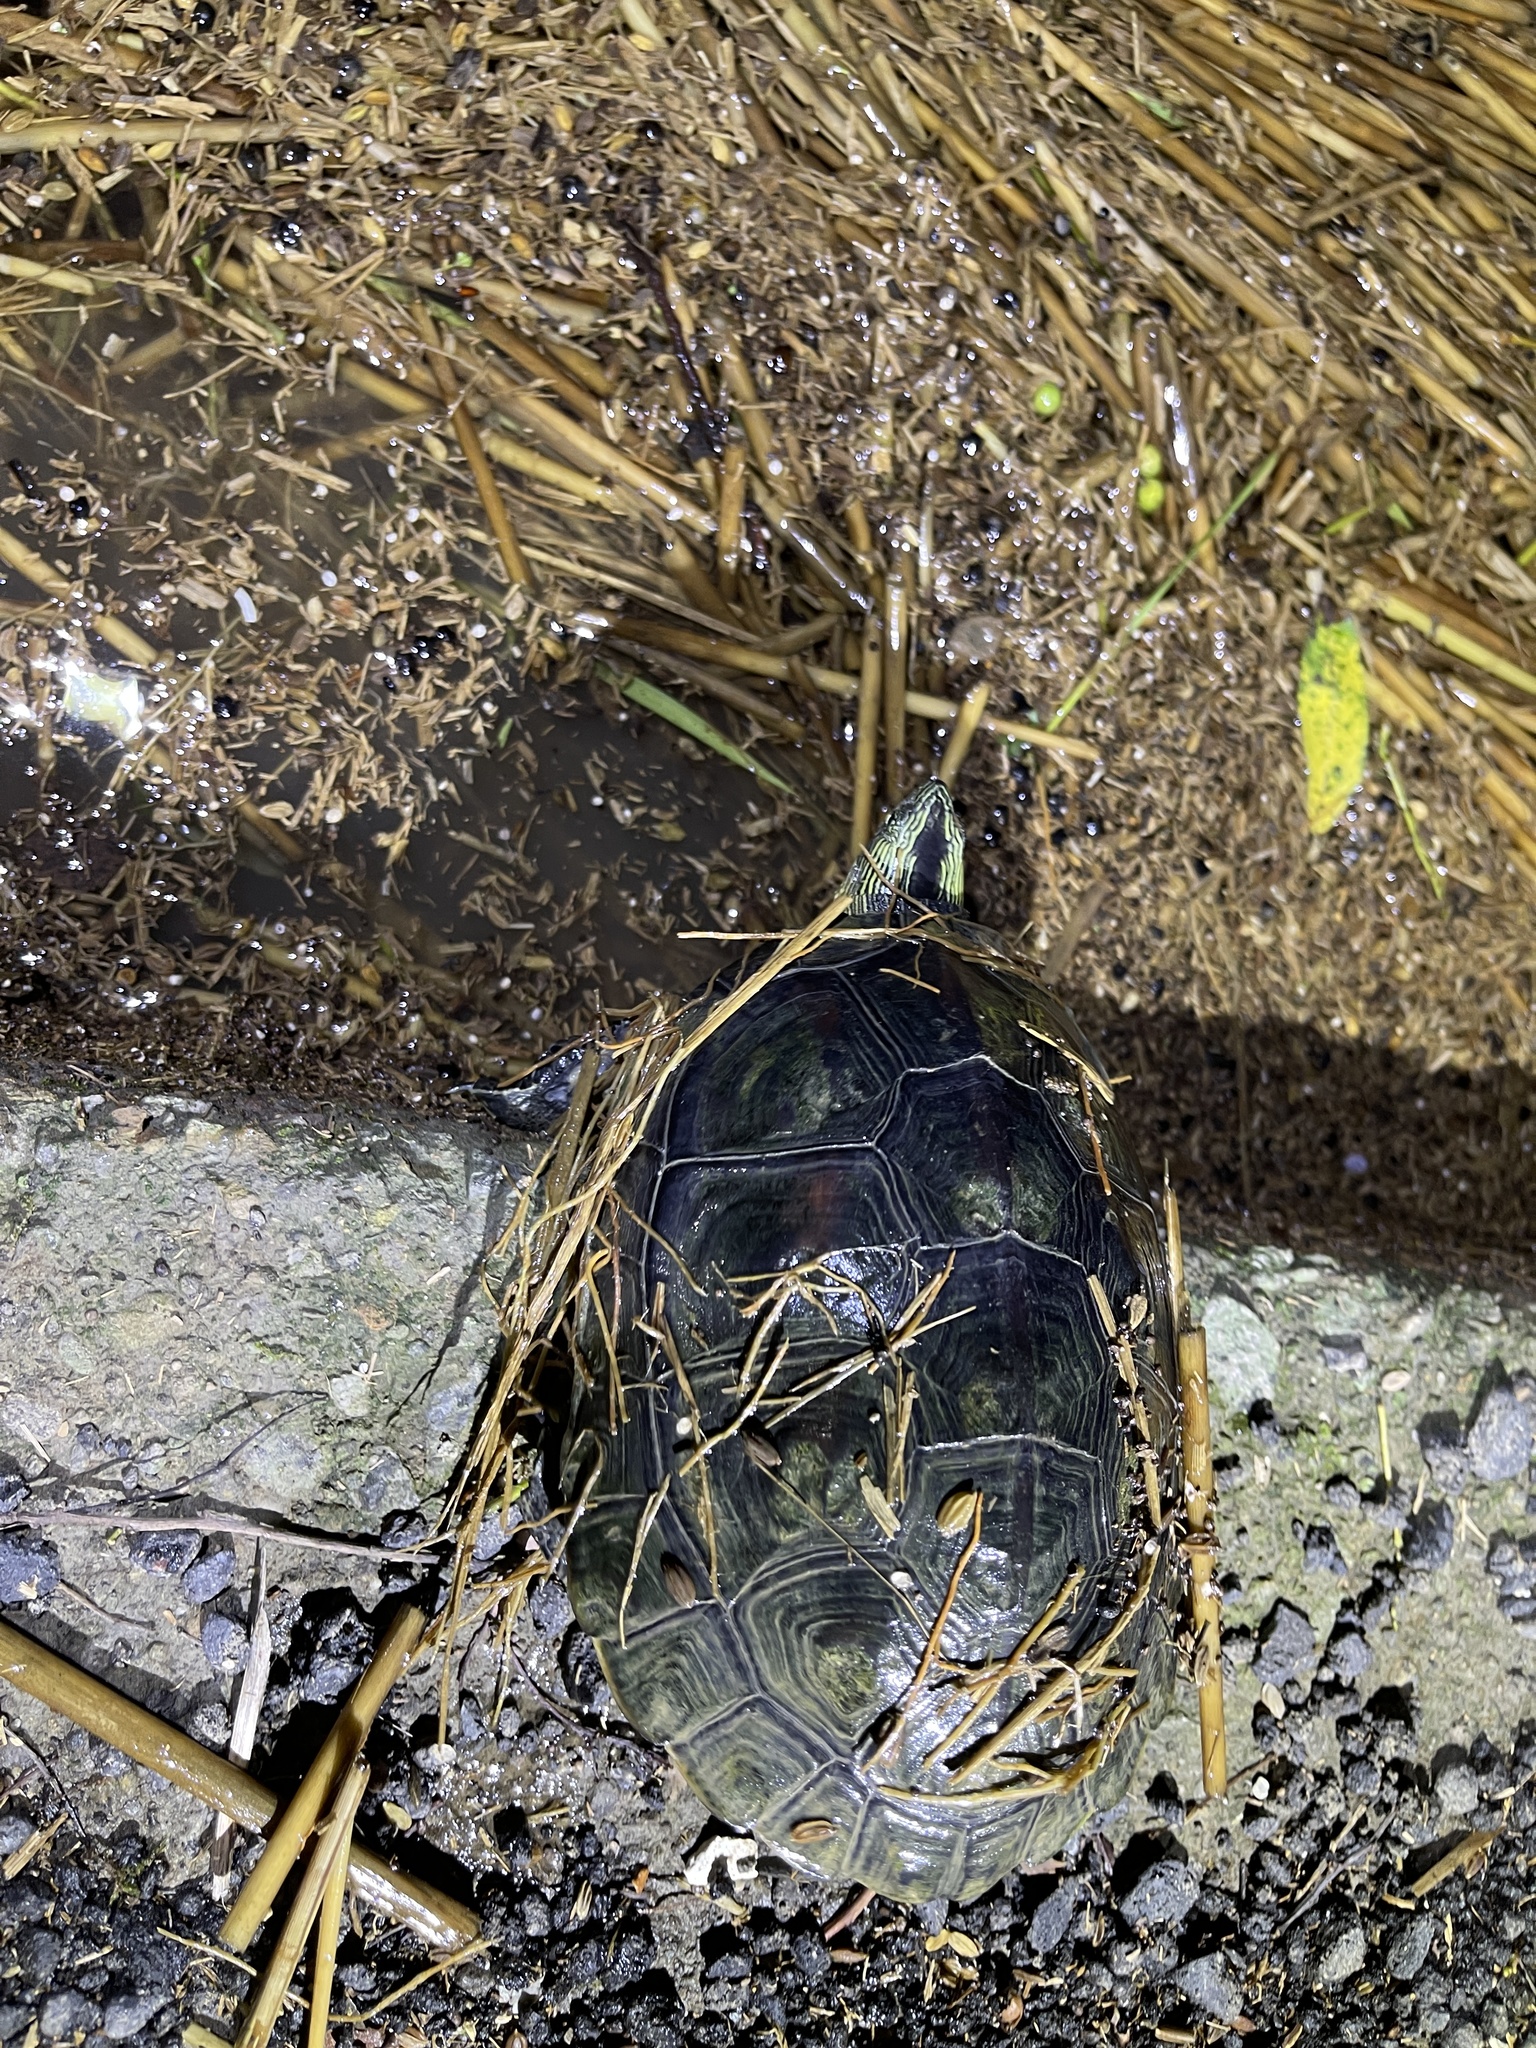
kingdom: Animalia
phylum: Chordata
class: Testudines
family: Geoemydidae
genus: Mauremys
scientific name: Mauremys sinensis
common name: Chinese stripe-necked turtle
